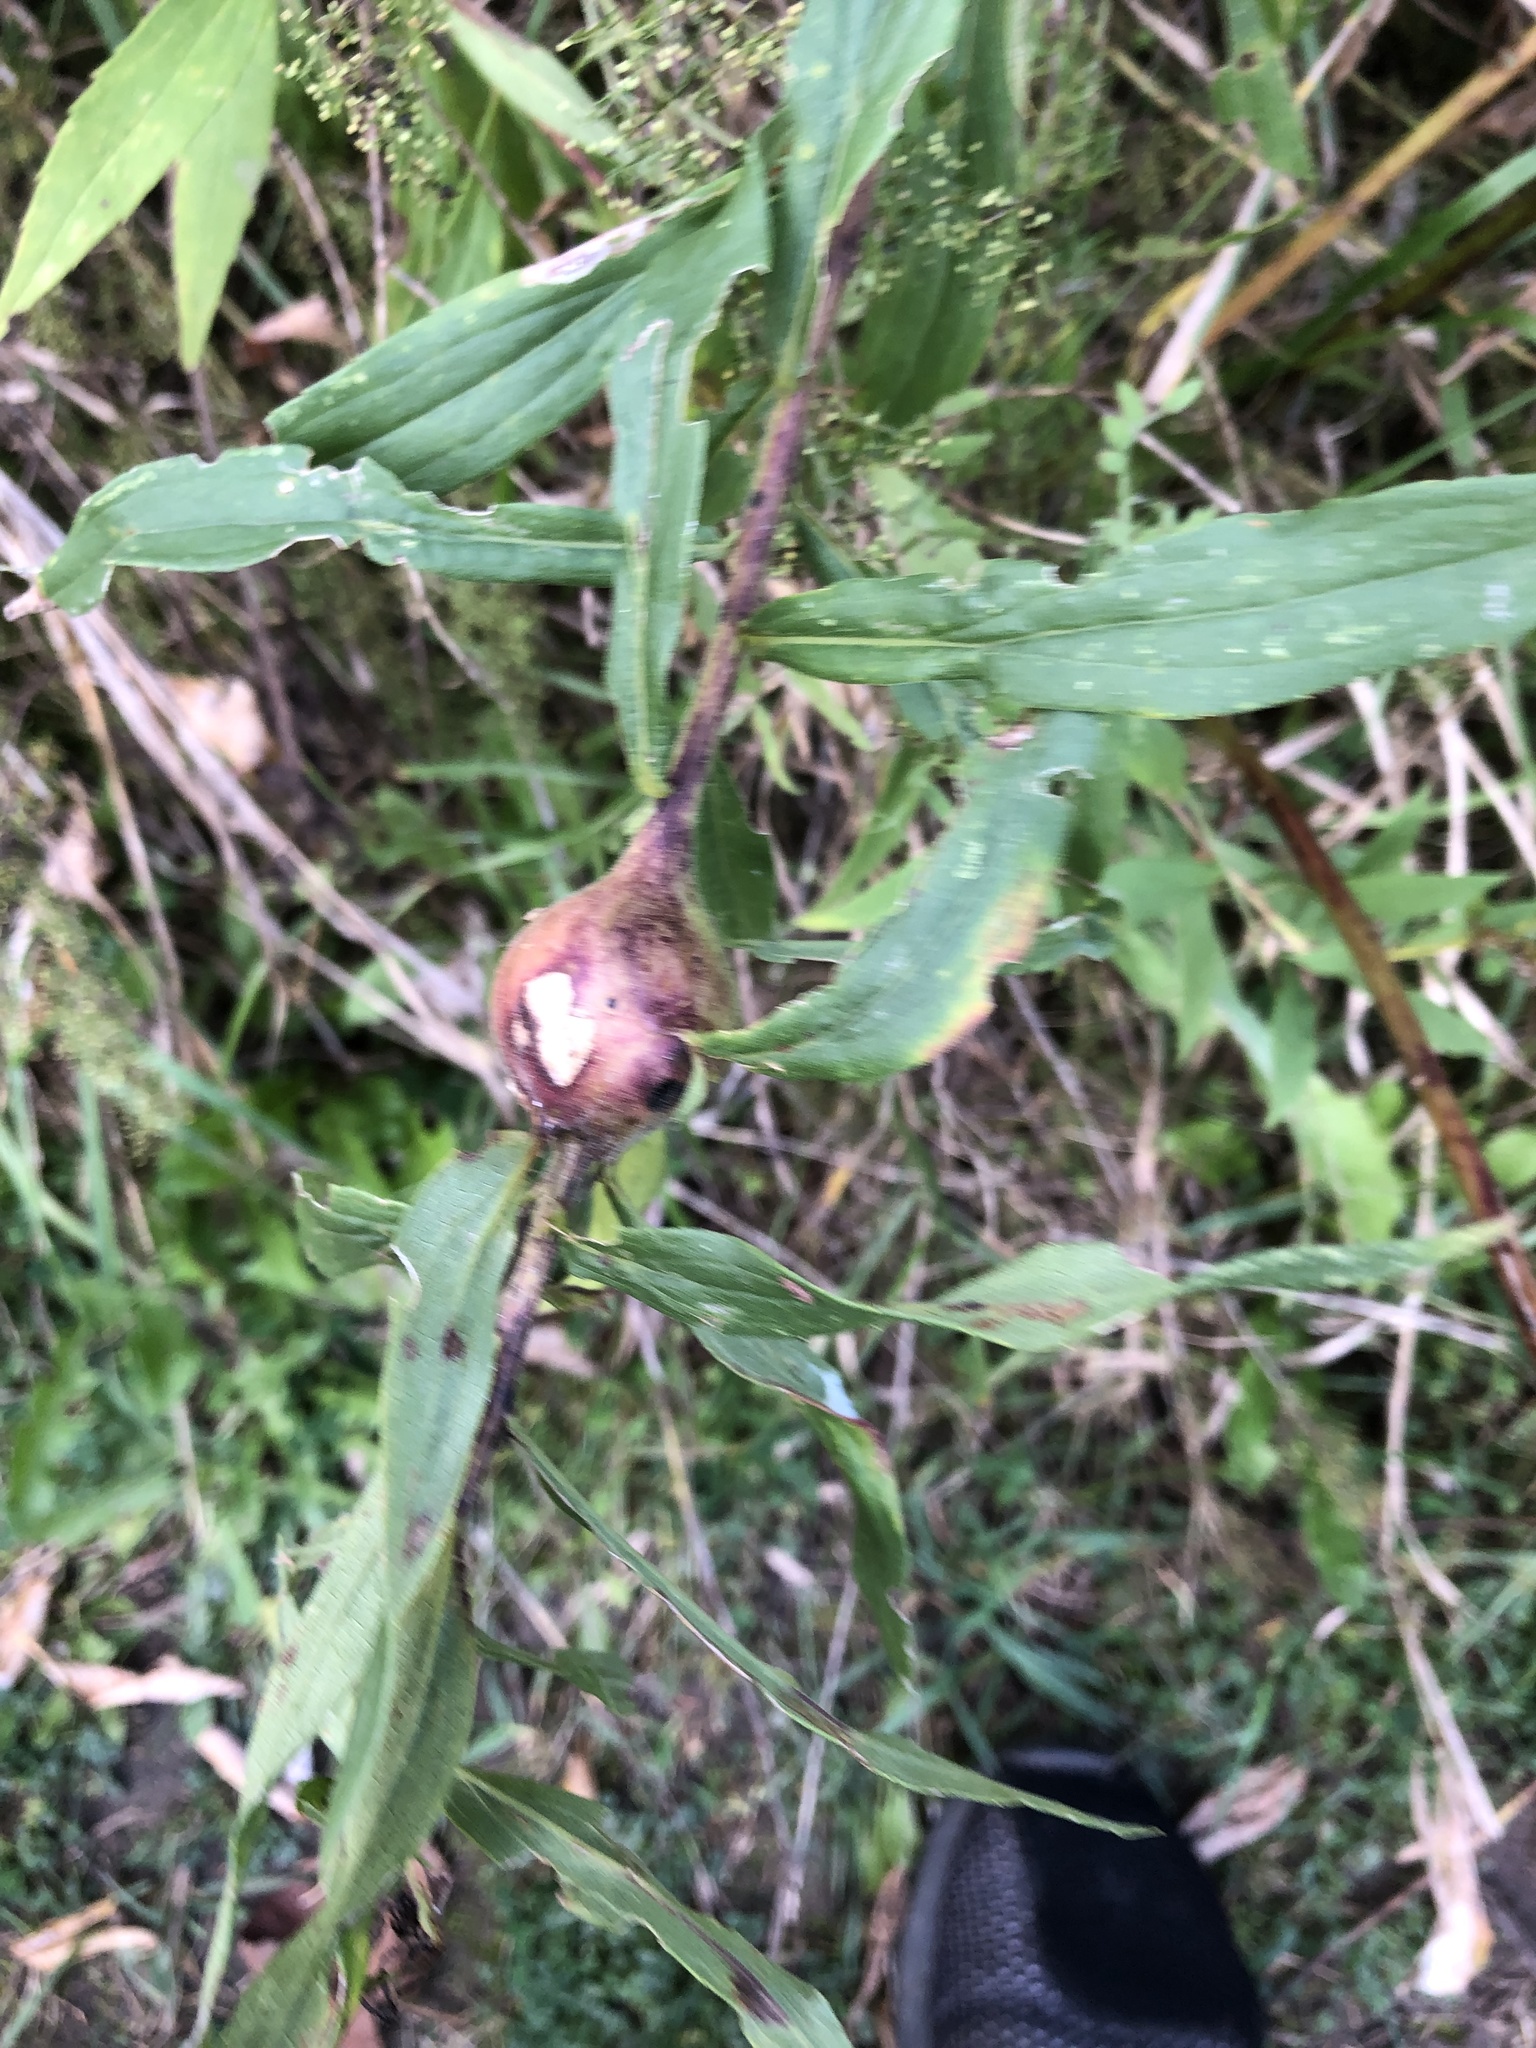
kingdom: Animalia
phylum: Arthropoda
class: Insecta
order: Diptera
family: Tephritidae
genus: Eurosta
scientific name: Eurosta solidaginis
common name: Goldenrod gall fly
